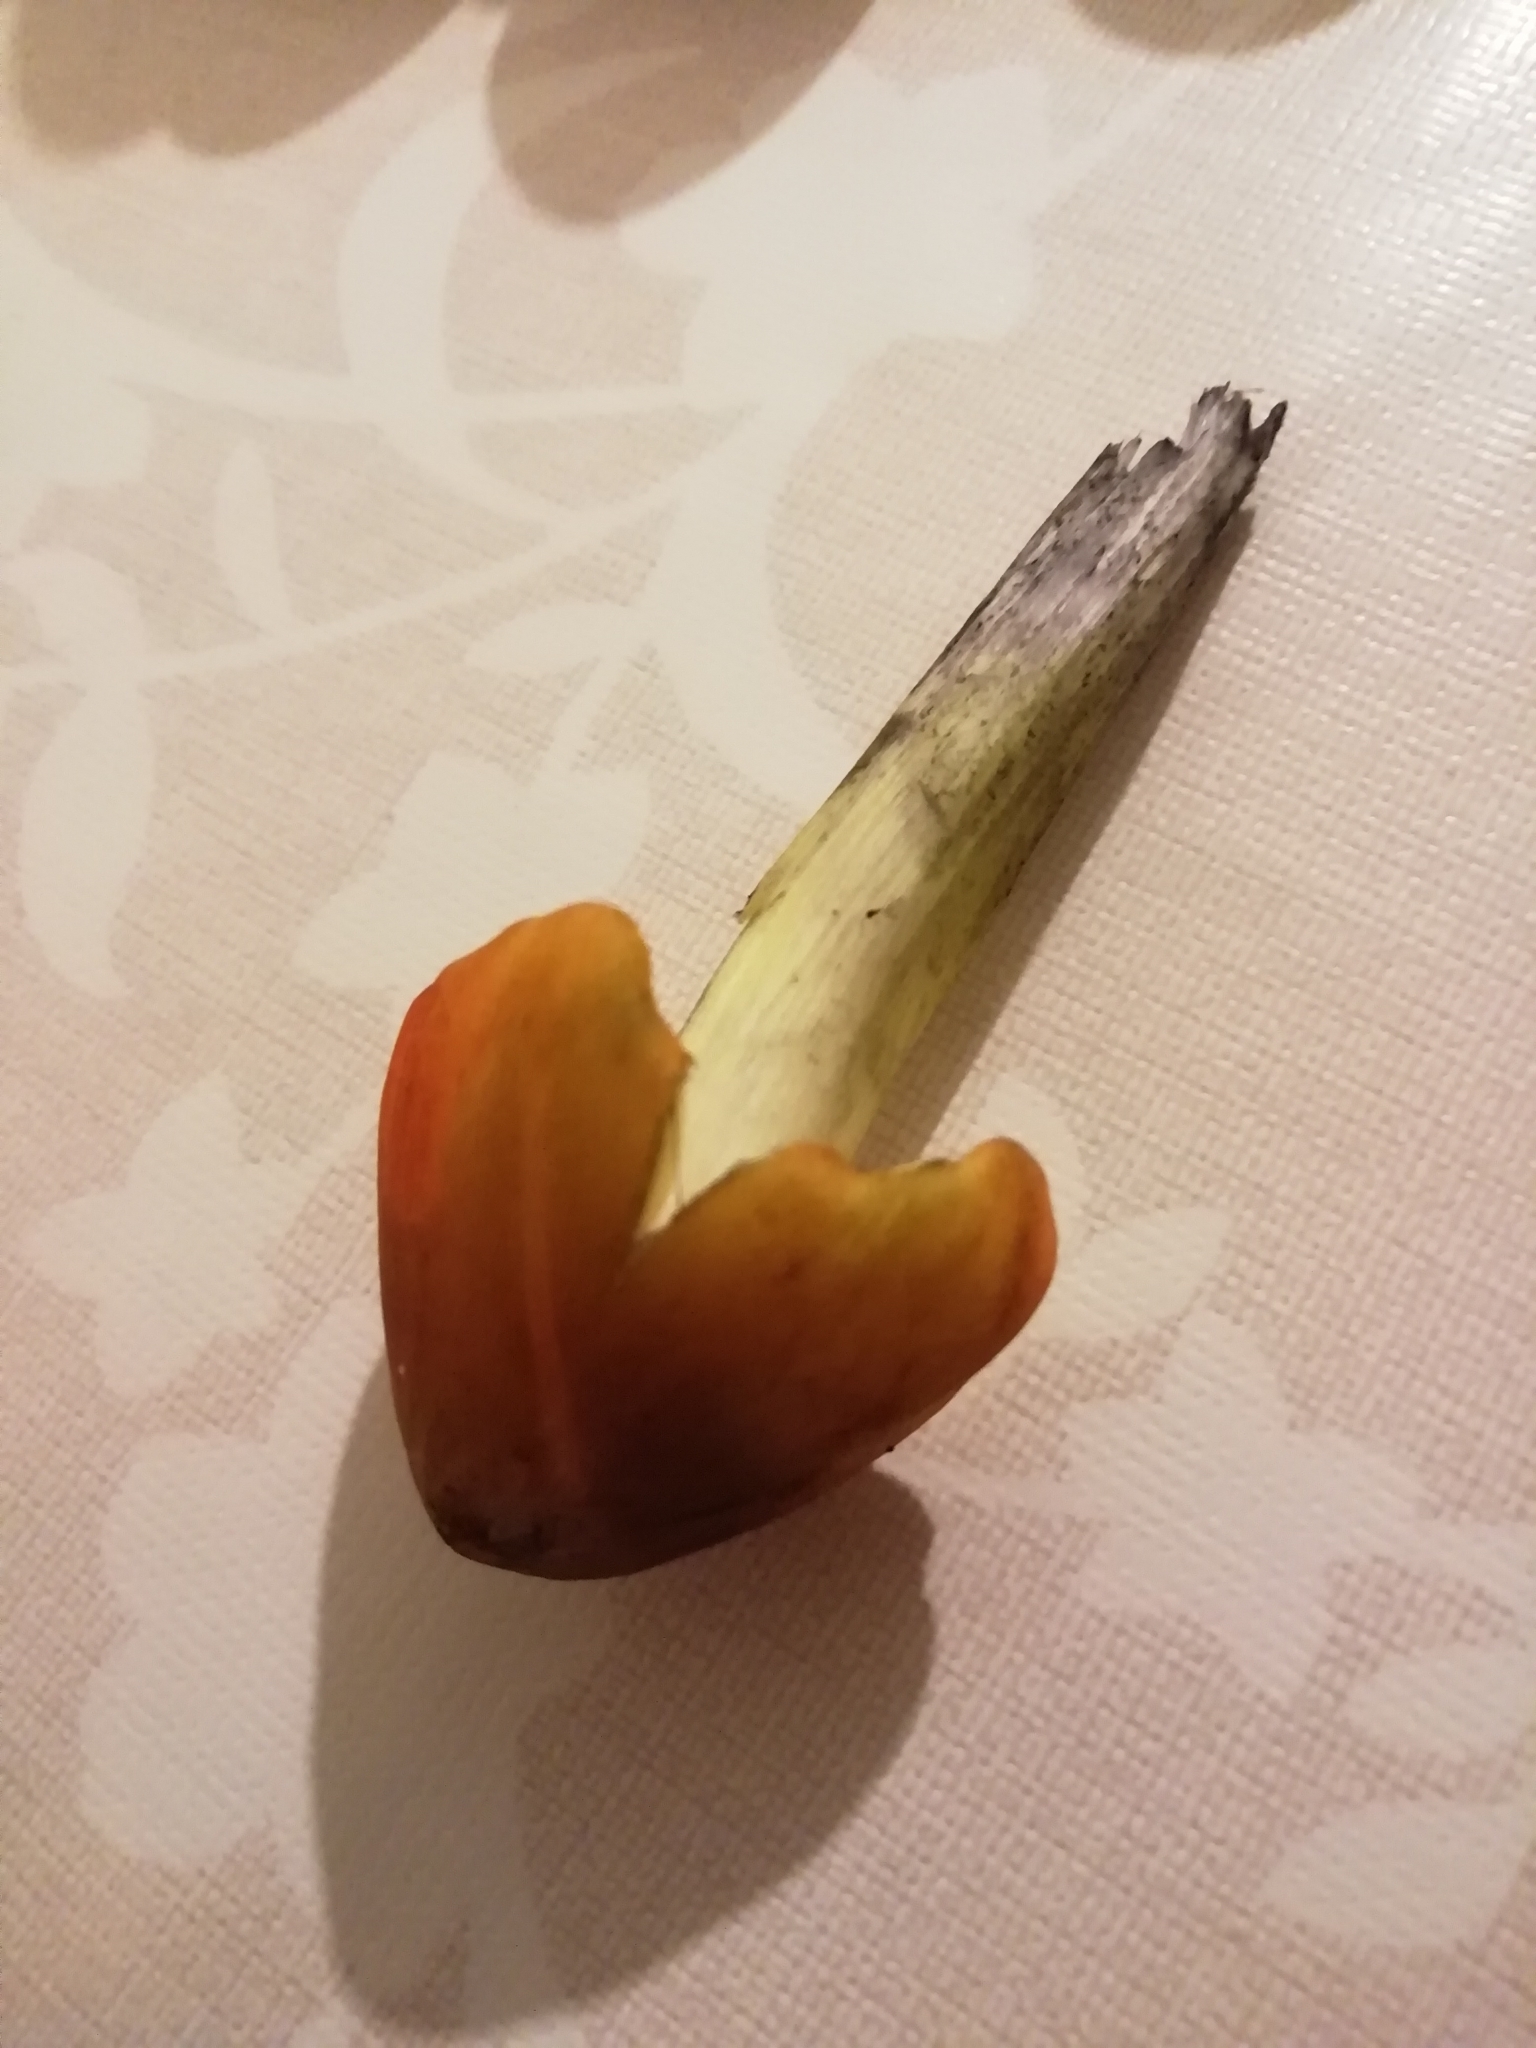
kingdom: Fungi
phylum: Basidiomycota
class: Agaricomycetes
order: Agaricales
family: Hygrophoraceae
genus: Hygrocybe
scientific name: Hygrocybe conica
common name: Blackening wax-cap
